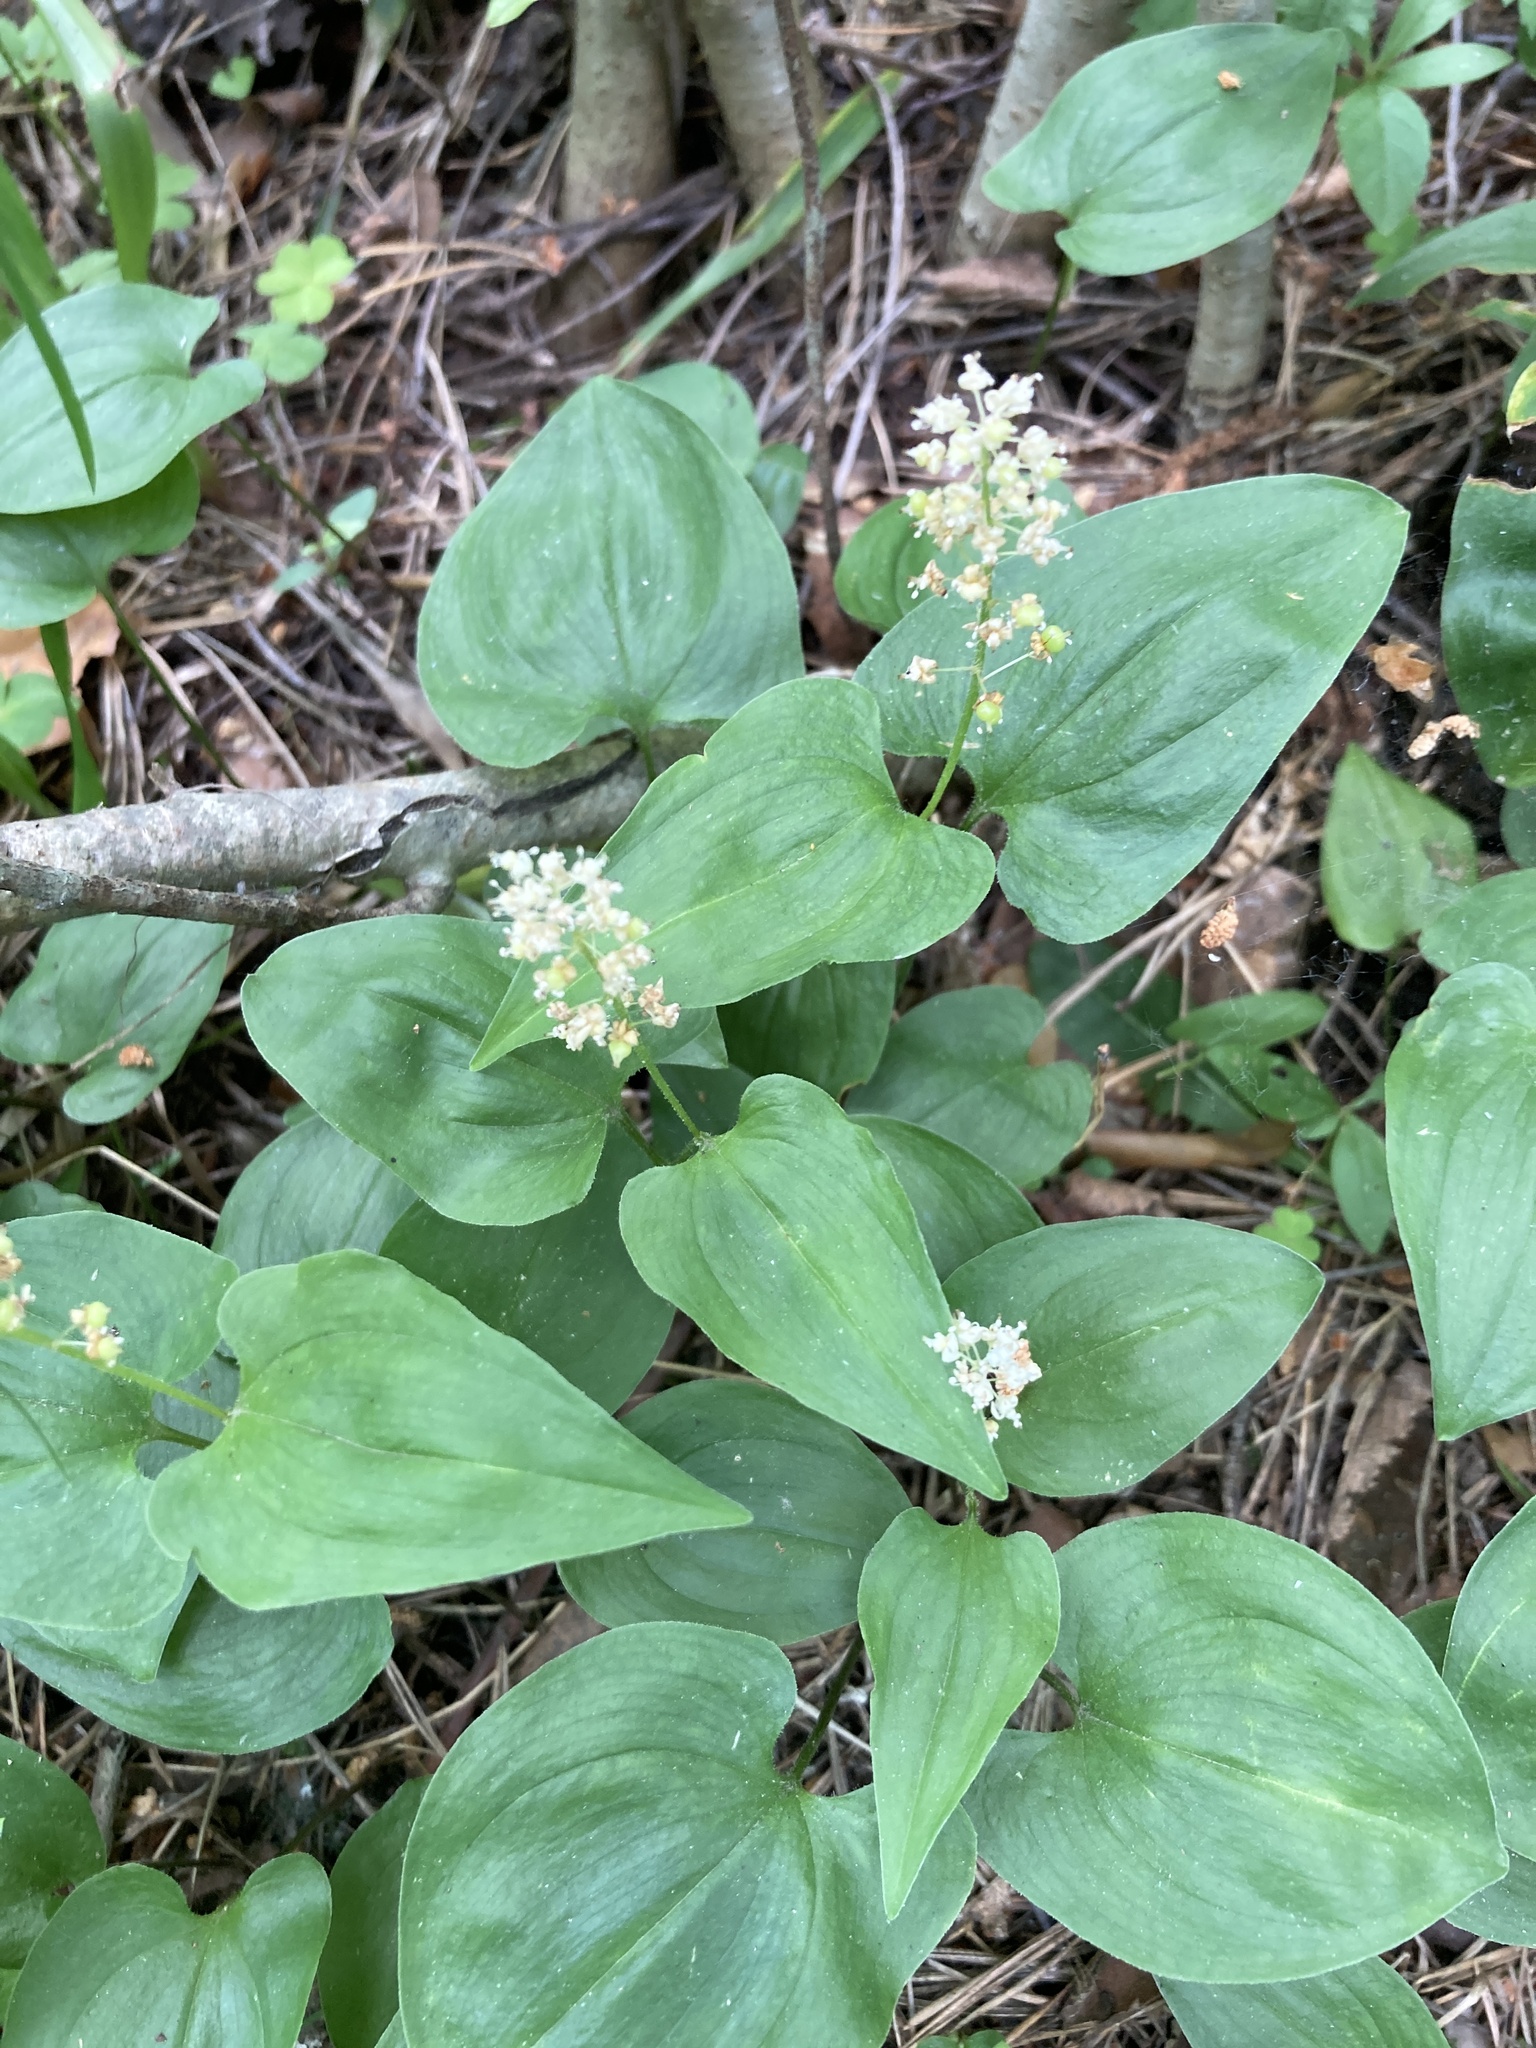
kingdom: Plantae
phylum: Tracheophyta
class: Liliopsida
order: Asparagales
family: Asparagaceae
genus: Maianthemum
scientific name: Maianthemum bifolium
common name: May lily
